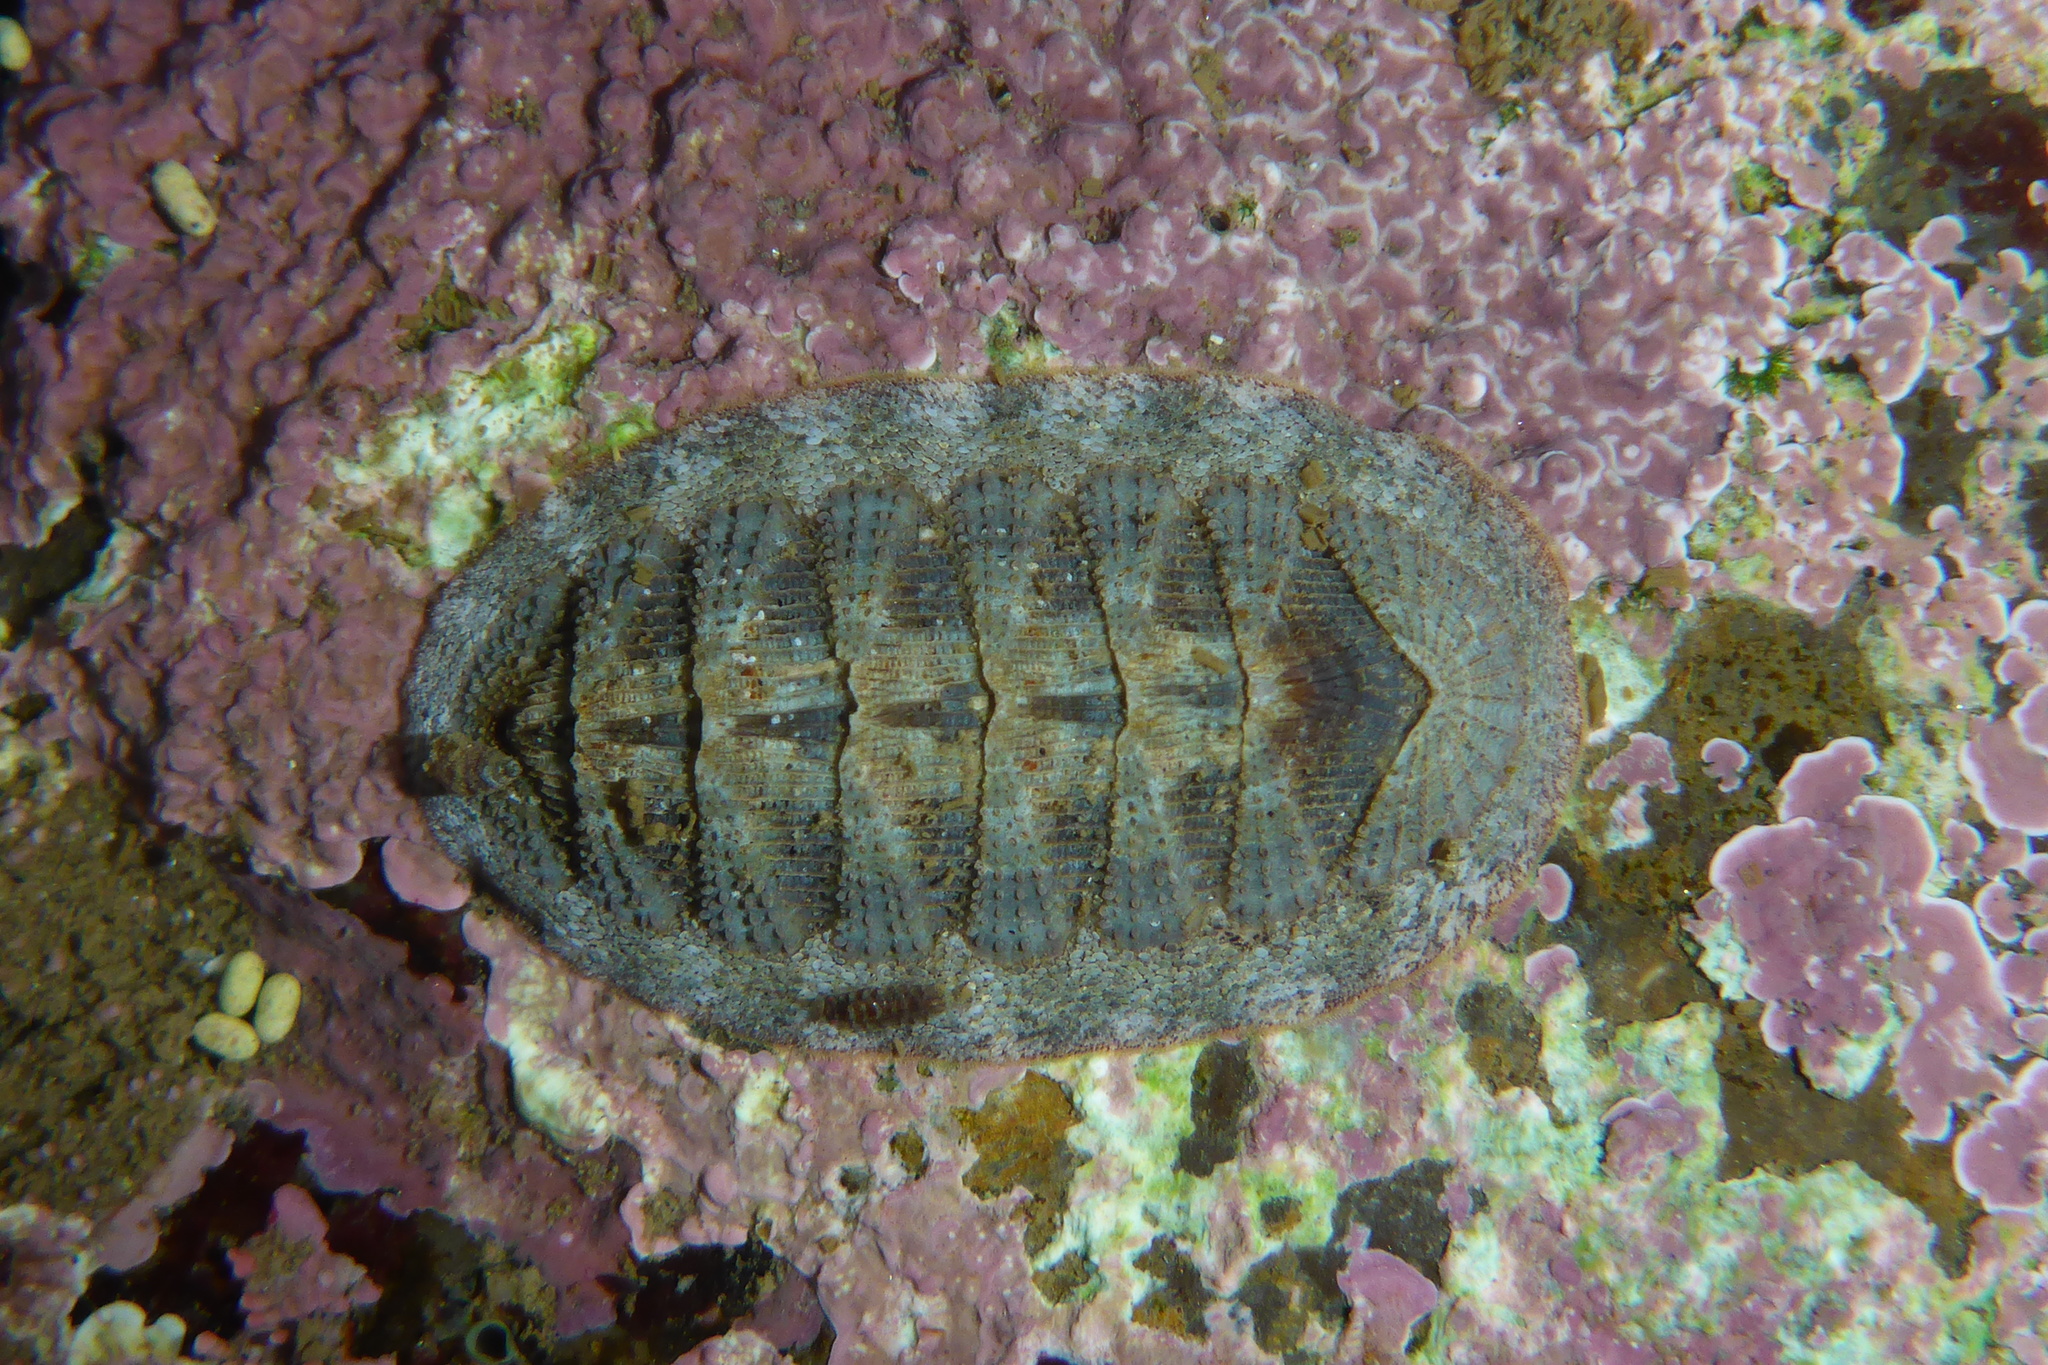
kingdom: Animalia
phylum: Mollusca
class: Polyplacophora
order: Chitonida
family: Ischnochitonidae
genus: Lepidozona
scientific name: Lepidozona cooperi
